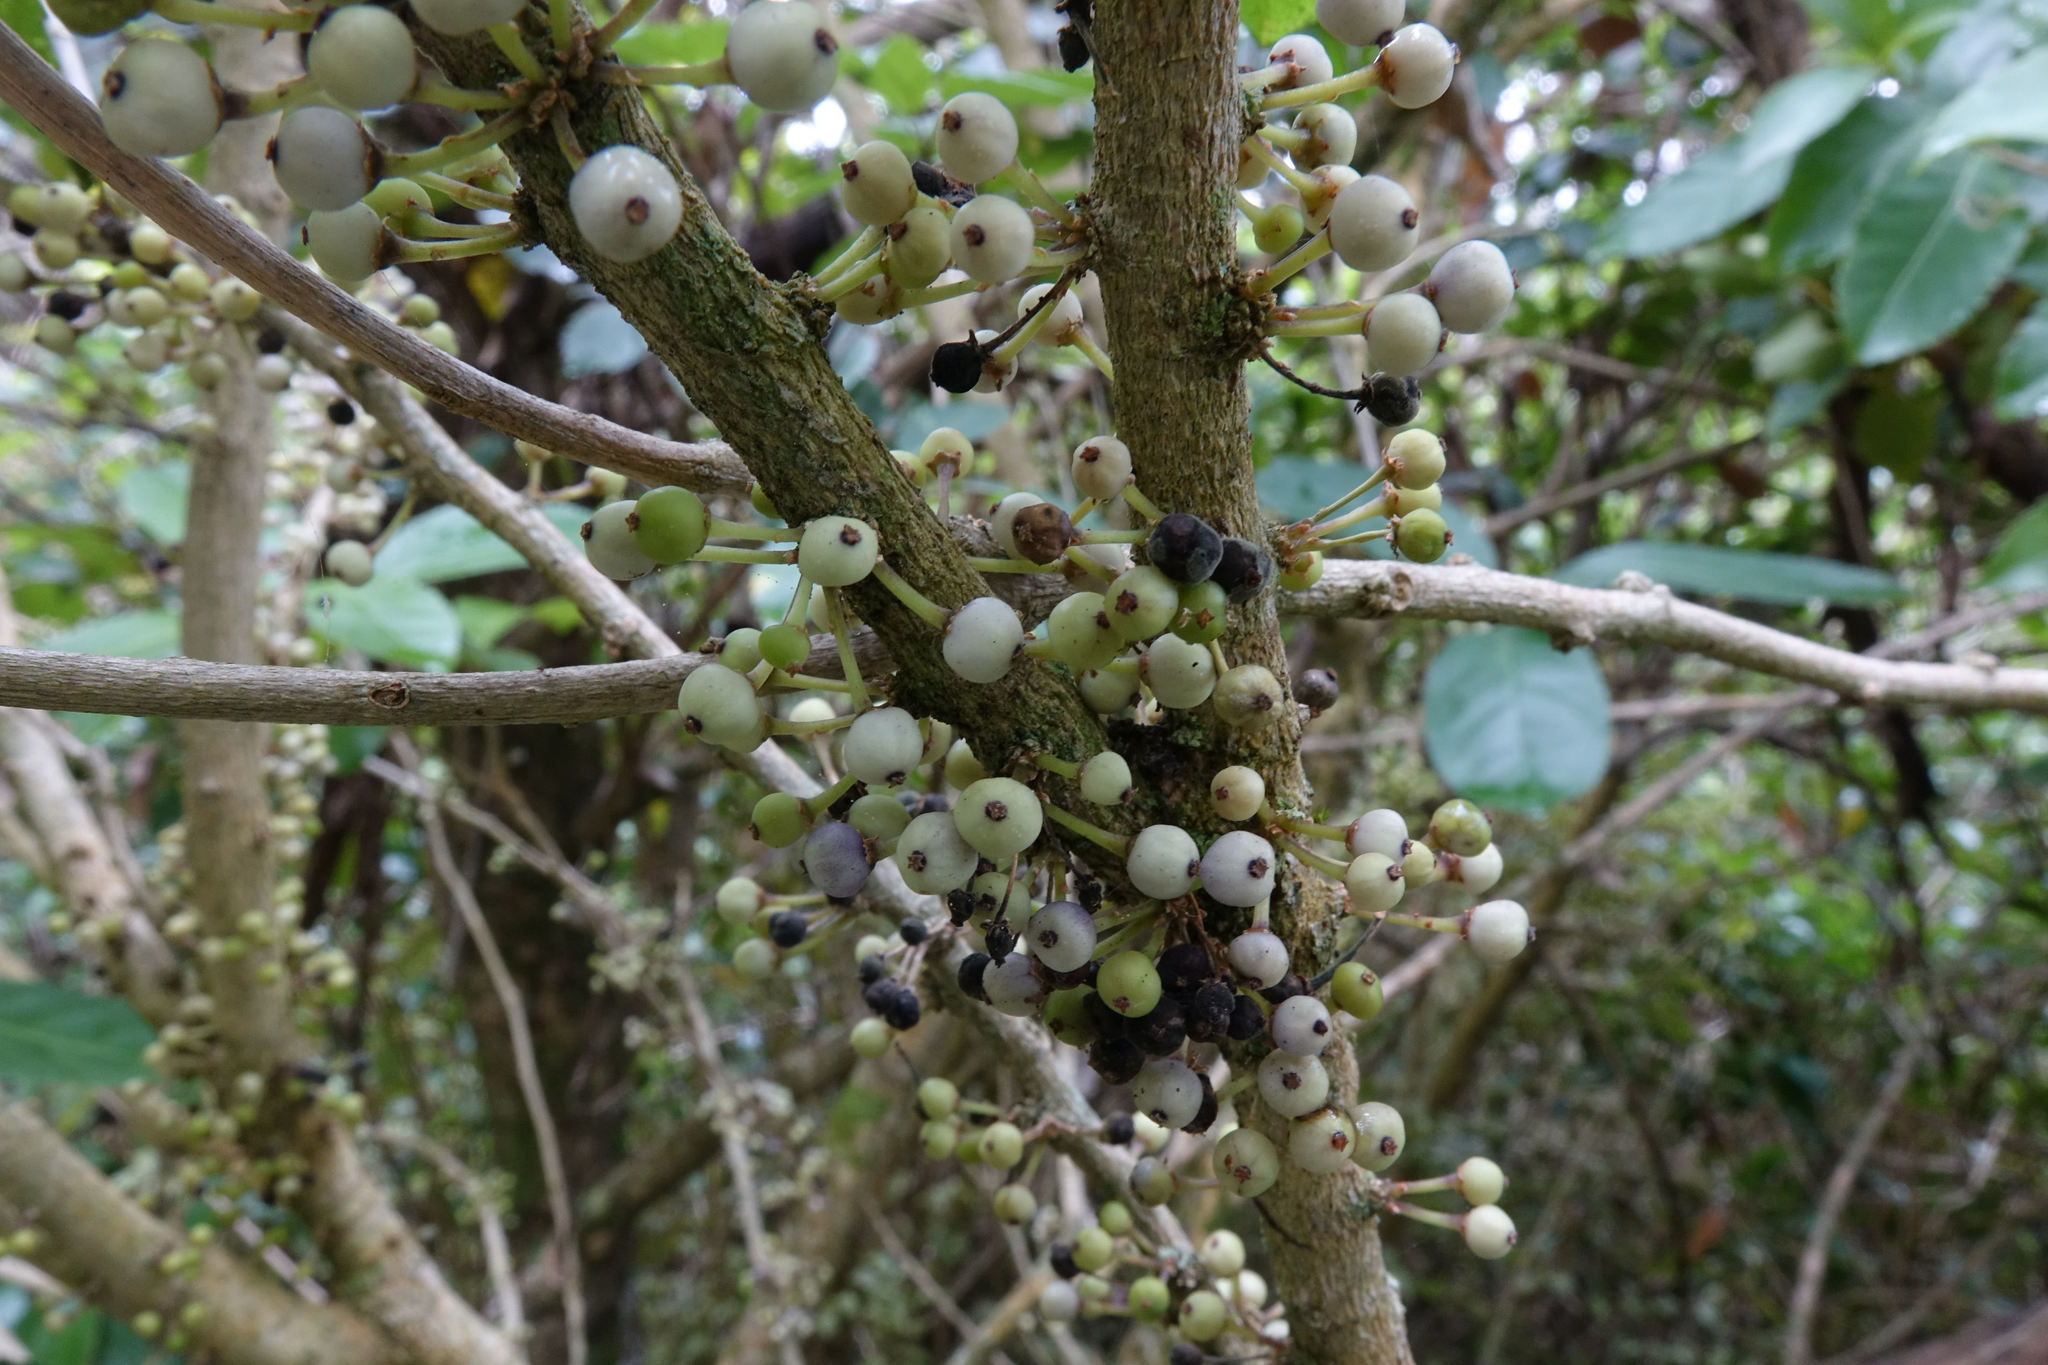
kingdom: Plantae
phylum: Tracheophyta
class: Magnoliopsida
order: Malpighiales
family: Violaceae
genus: Melicytus
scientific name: Melicytus ramiflorus
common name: Mahoe
